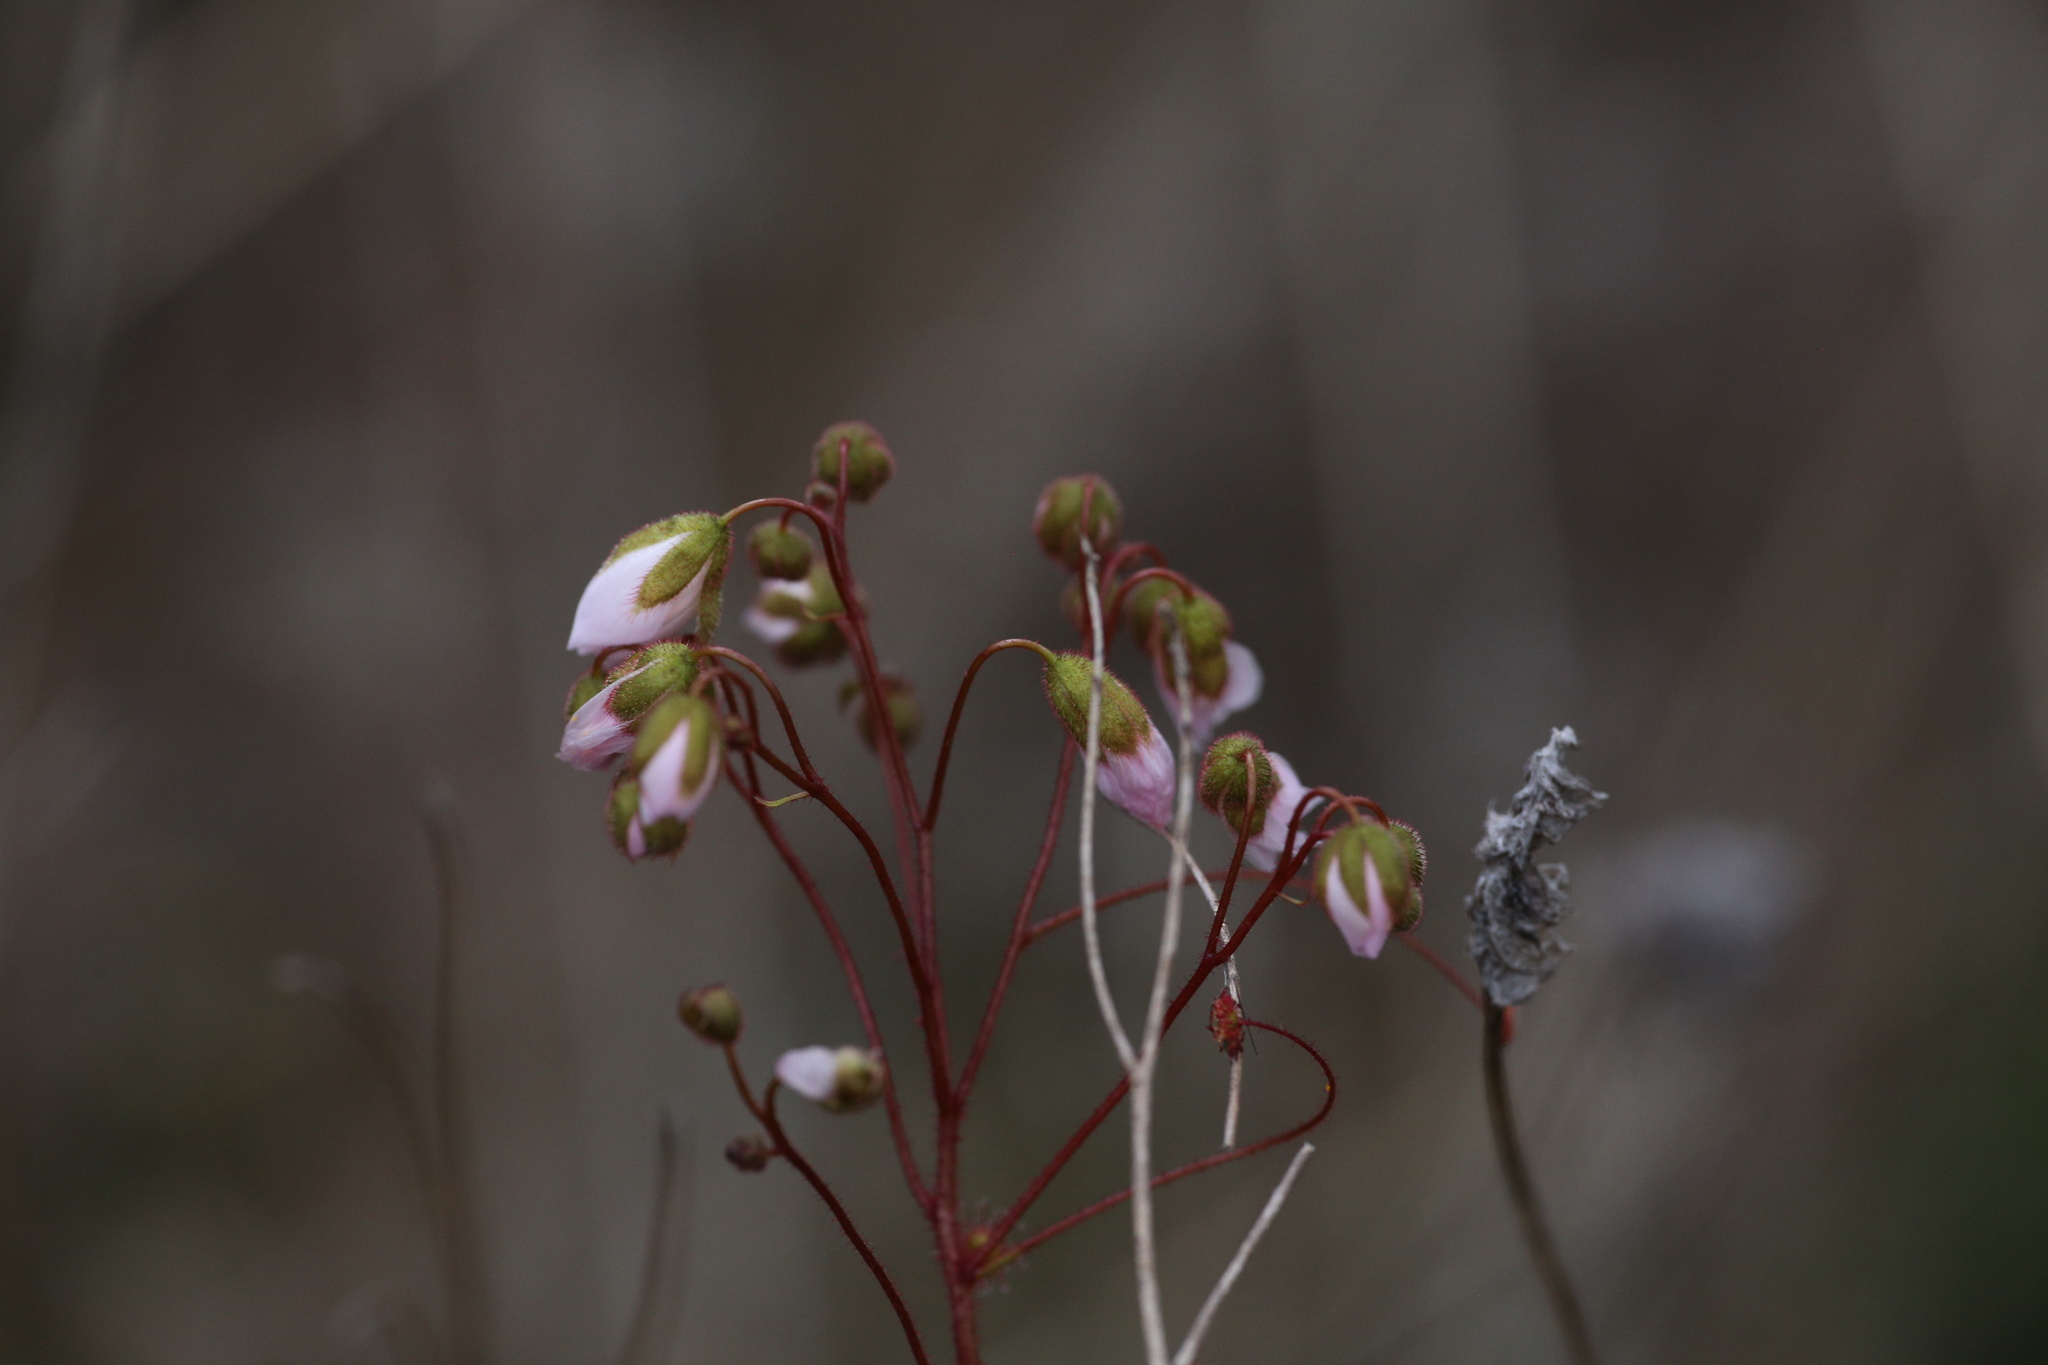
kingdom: Plantae
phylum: Tracheophyta
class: Magnoliopsida
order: Caryophyllales
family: Droseraceae
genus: Drosera
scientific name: Drosera stricticaulis
